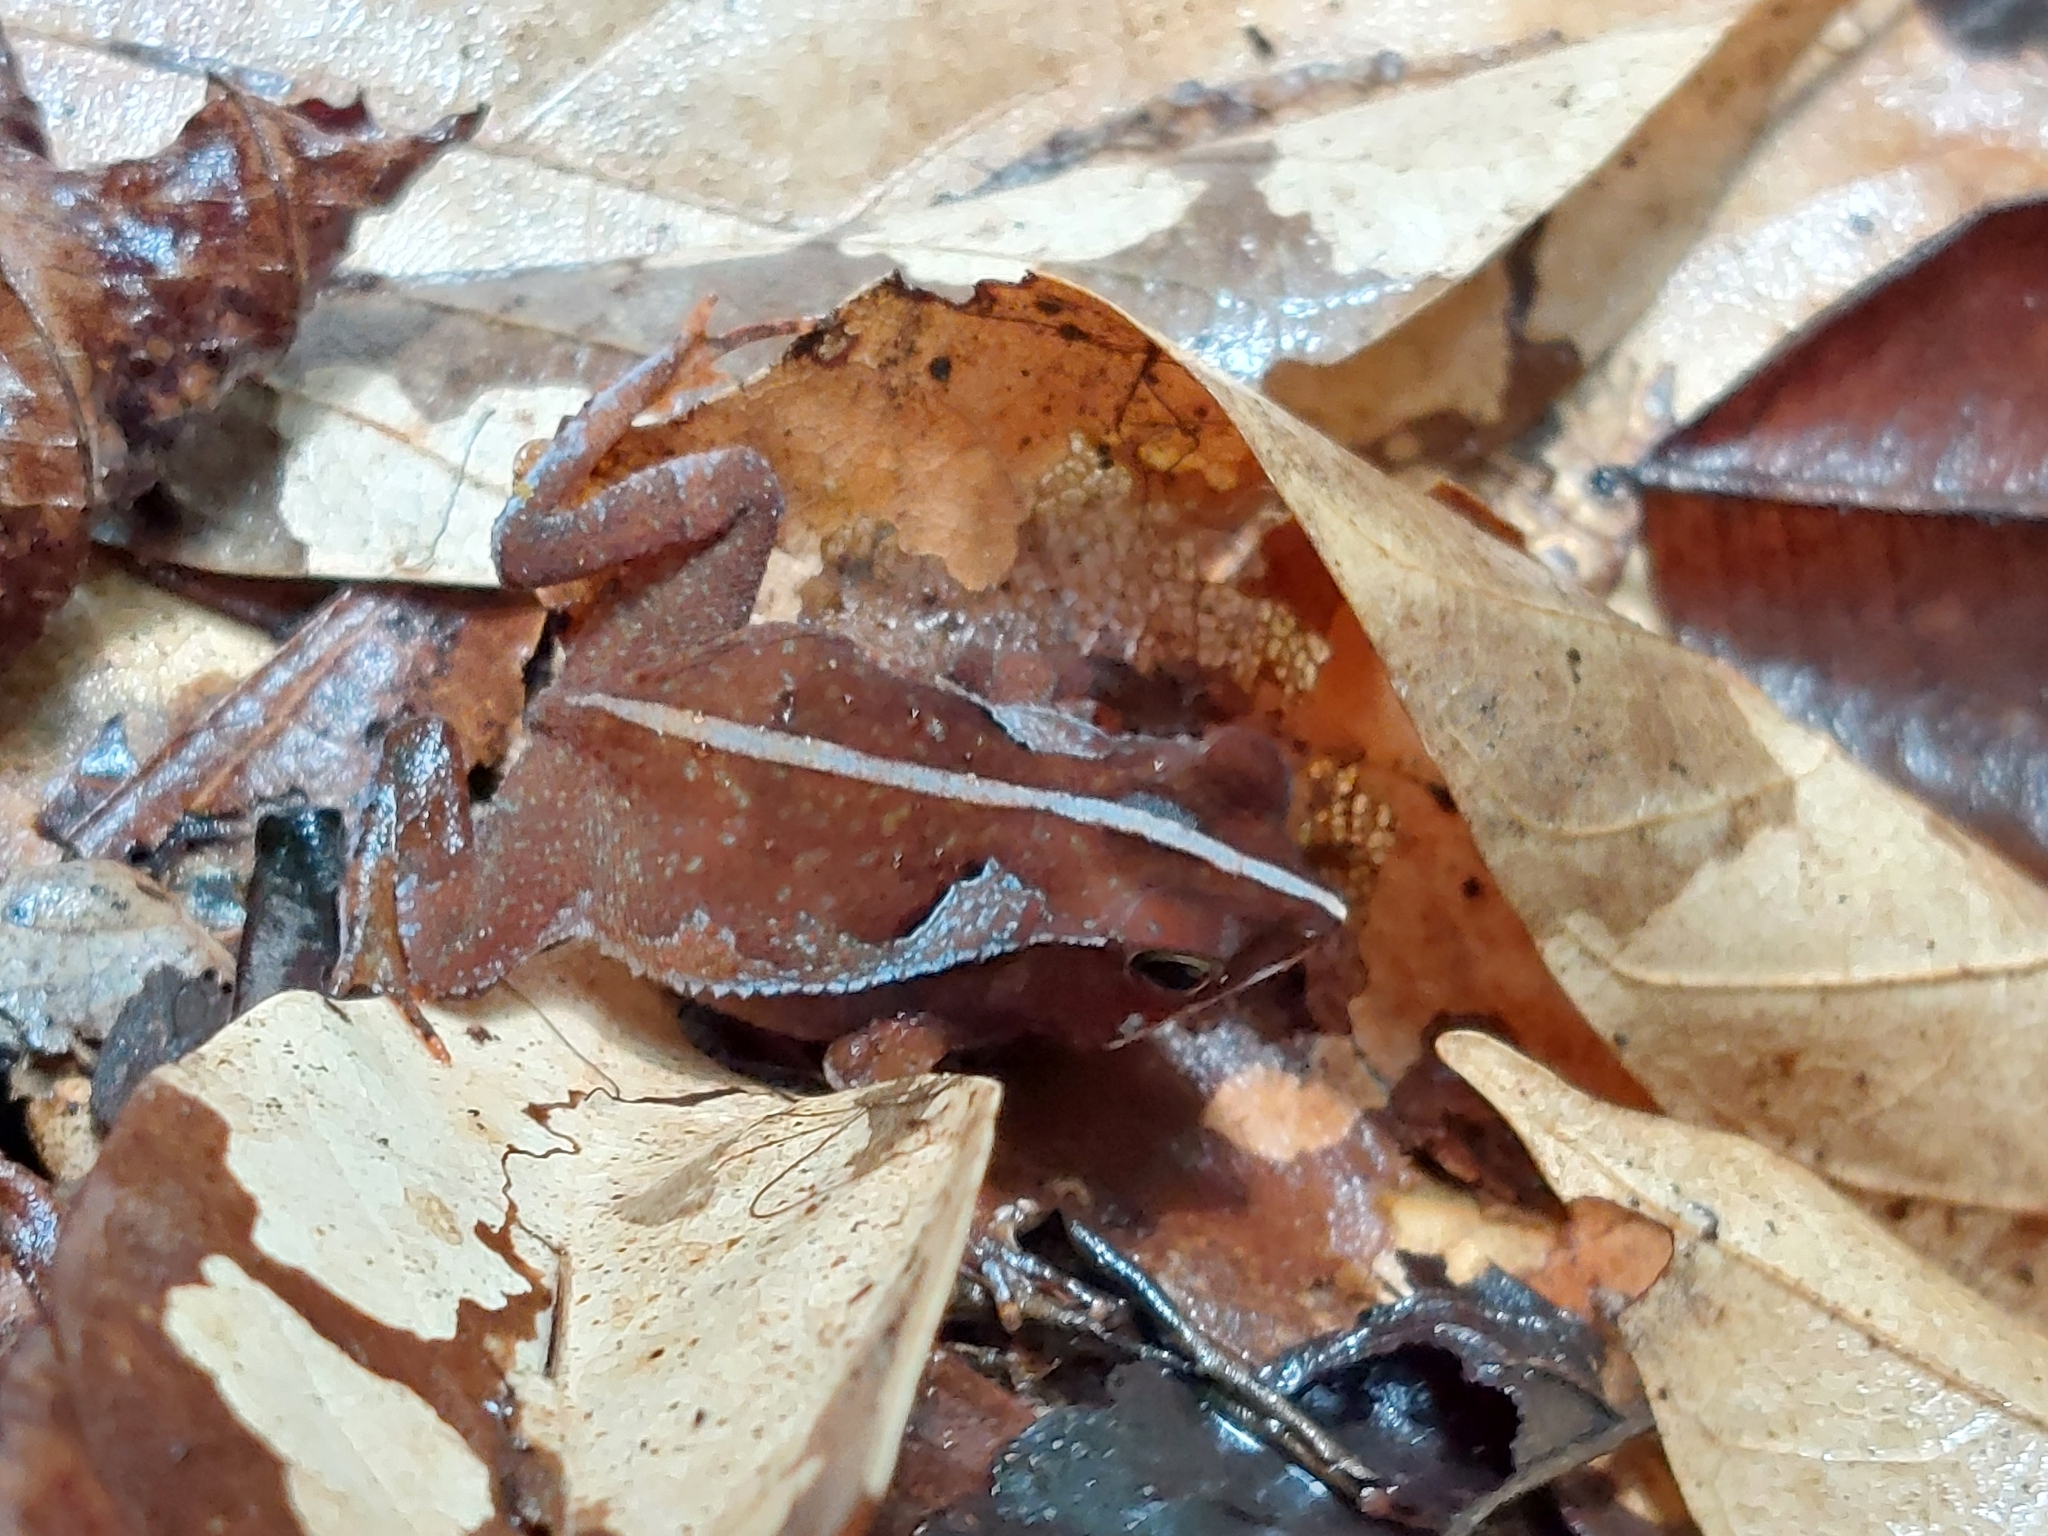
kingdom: Animalia
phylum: Chordata
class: Amphibia
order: Anura
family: Bufonidae
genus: Rhinella
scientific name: Rhinella margaritifera
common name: Mitred toad
